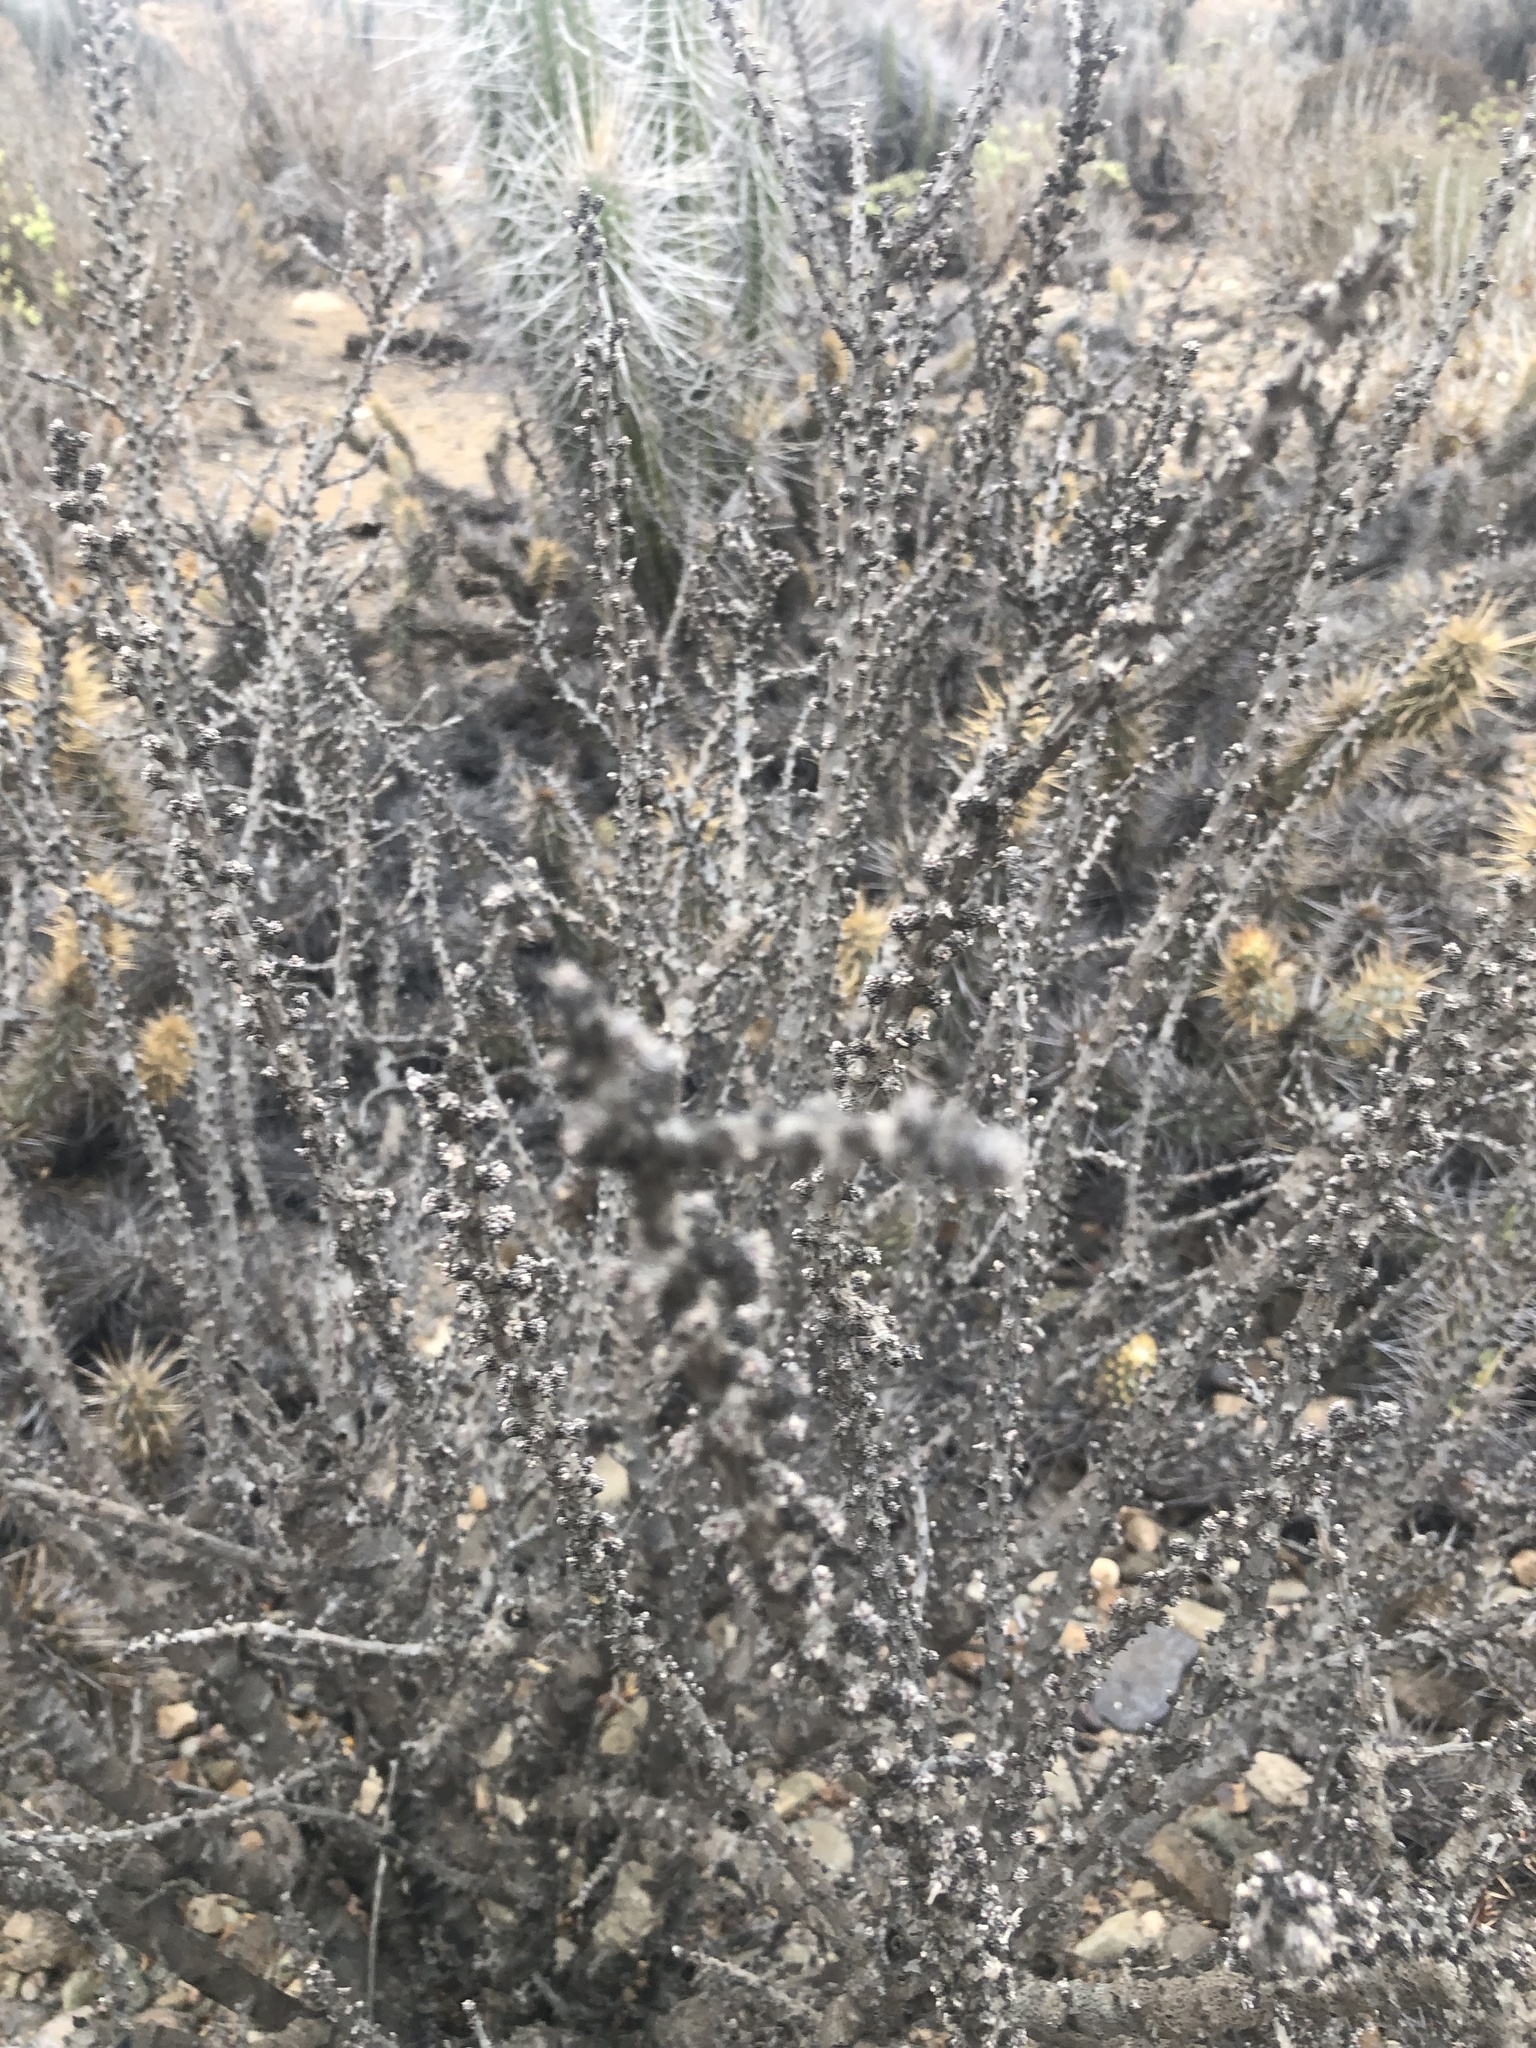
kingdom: Plantae
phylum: Tracheophyta
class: Magnoliopsida
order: Oxalidales
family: Oxalidaceae
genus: Oxalis
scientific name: Oxalis gigantea
